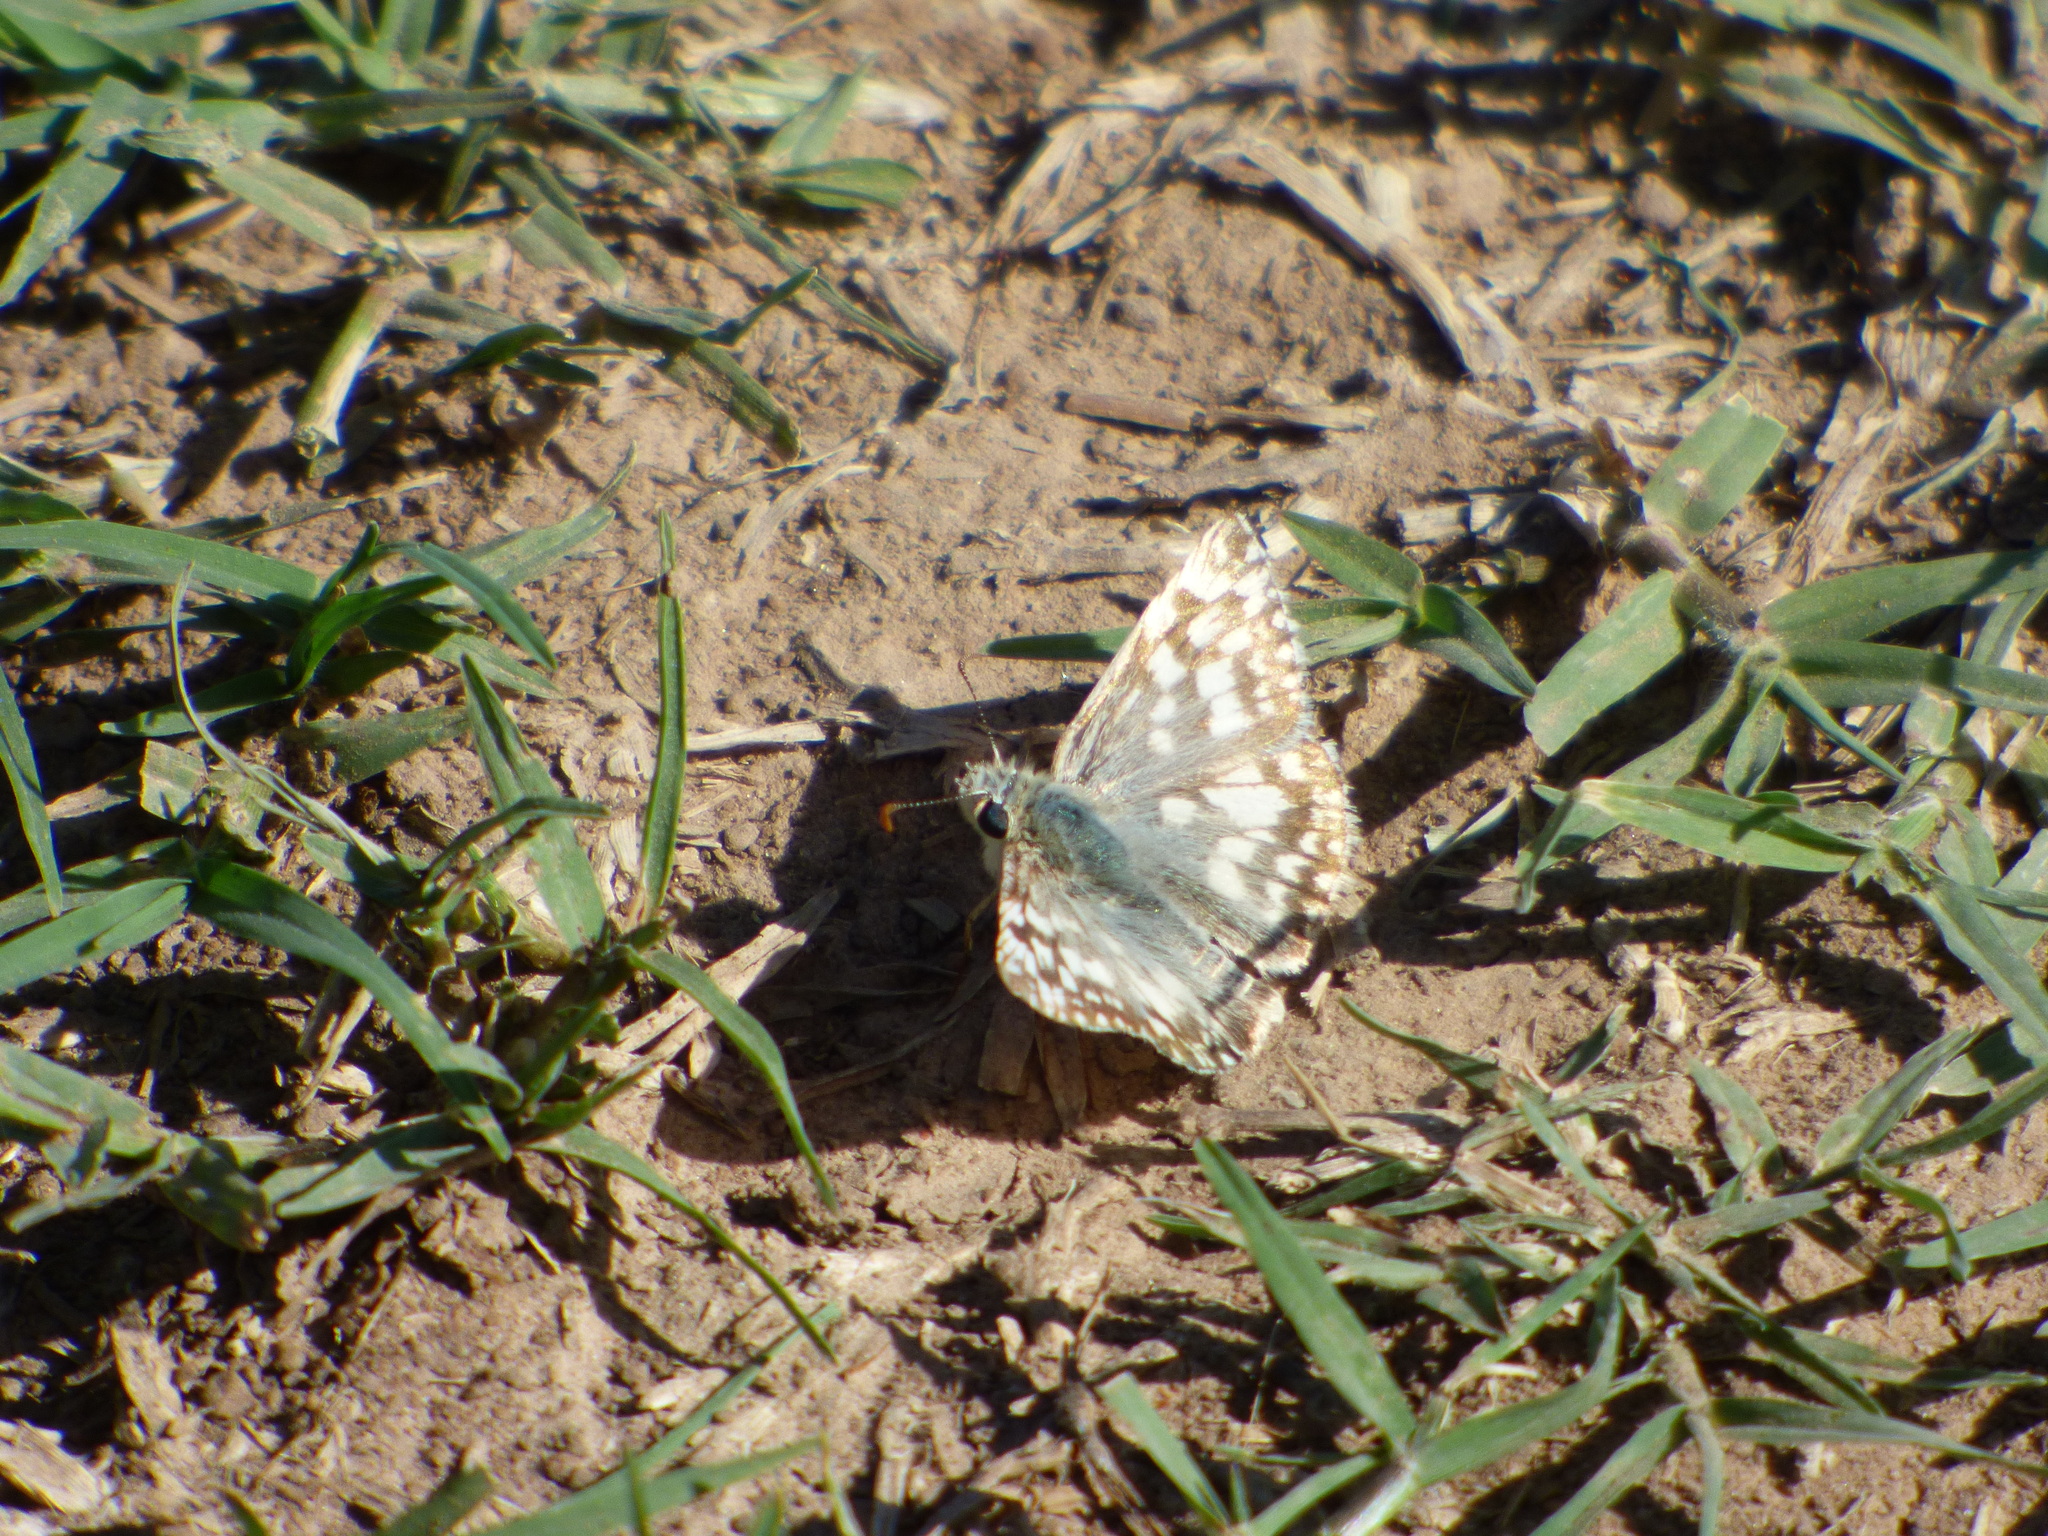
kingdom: Animalia
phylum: Arthropoda
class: Insecta
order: Lepidoptera
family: Hesperiidae
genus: Heliopetes
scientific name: Heliopetes americanus
